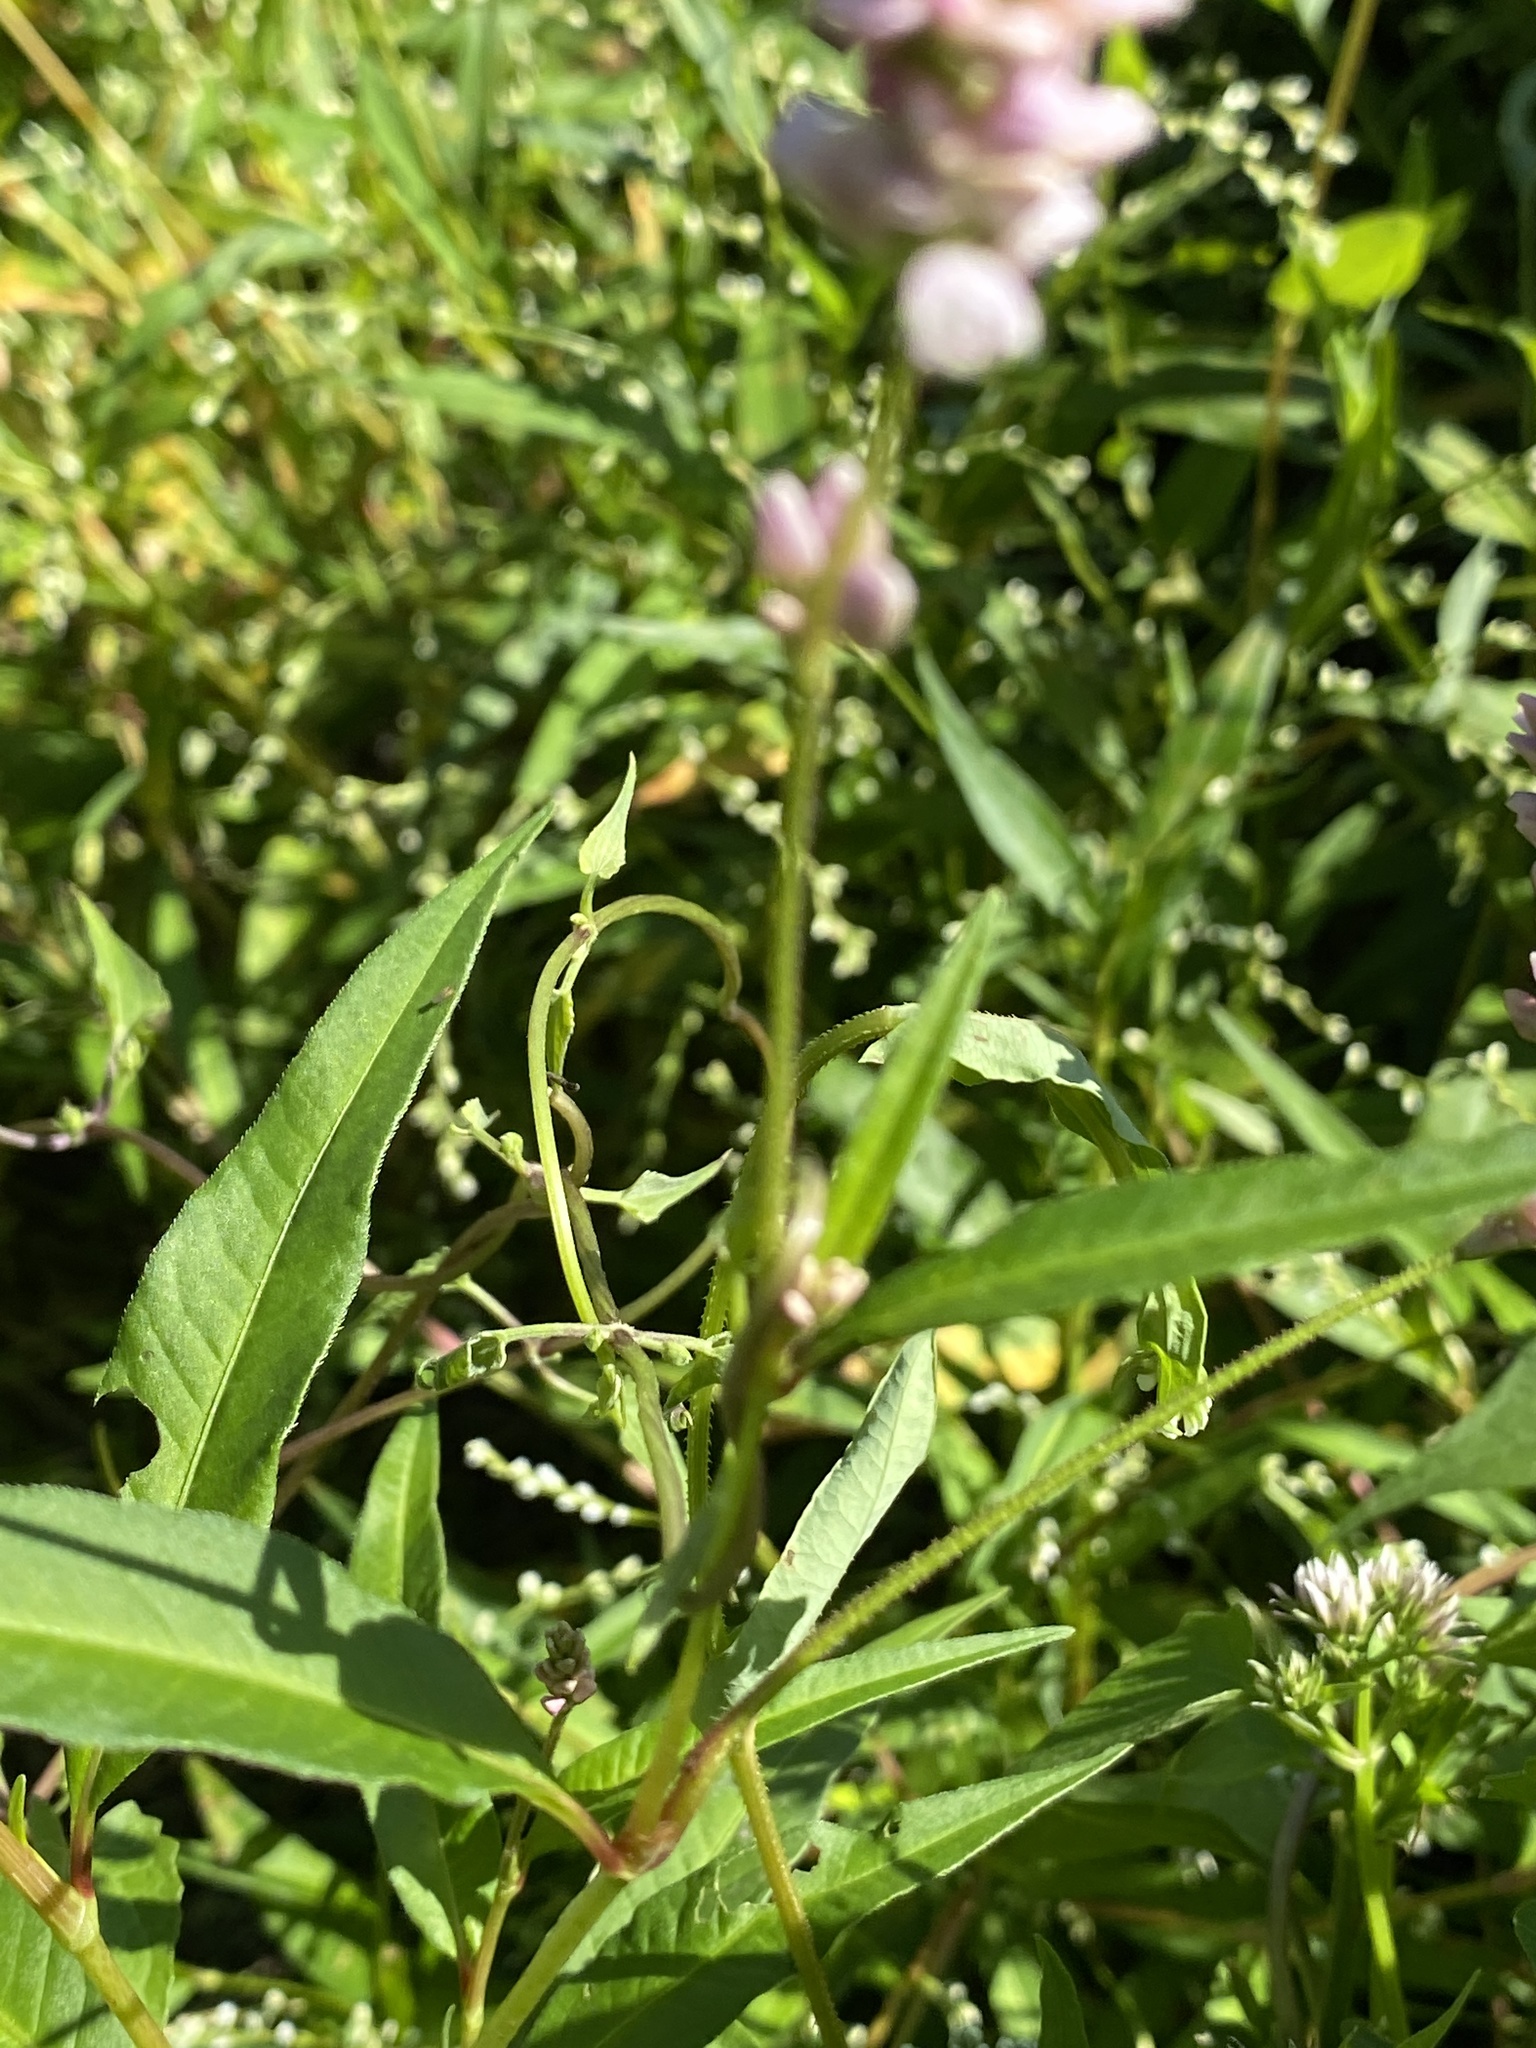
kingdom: Plantae
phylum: Tracheophyta
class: Magnoliopsida
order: Caryophyllales
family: Polygonaceae
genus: Persicaria
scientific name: Persicaria pensylvanica
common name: Pinkweed
